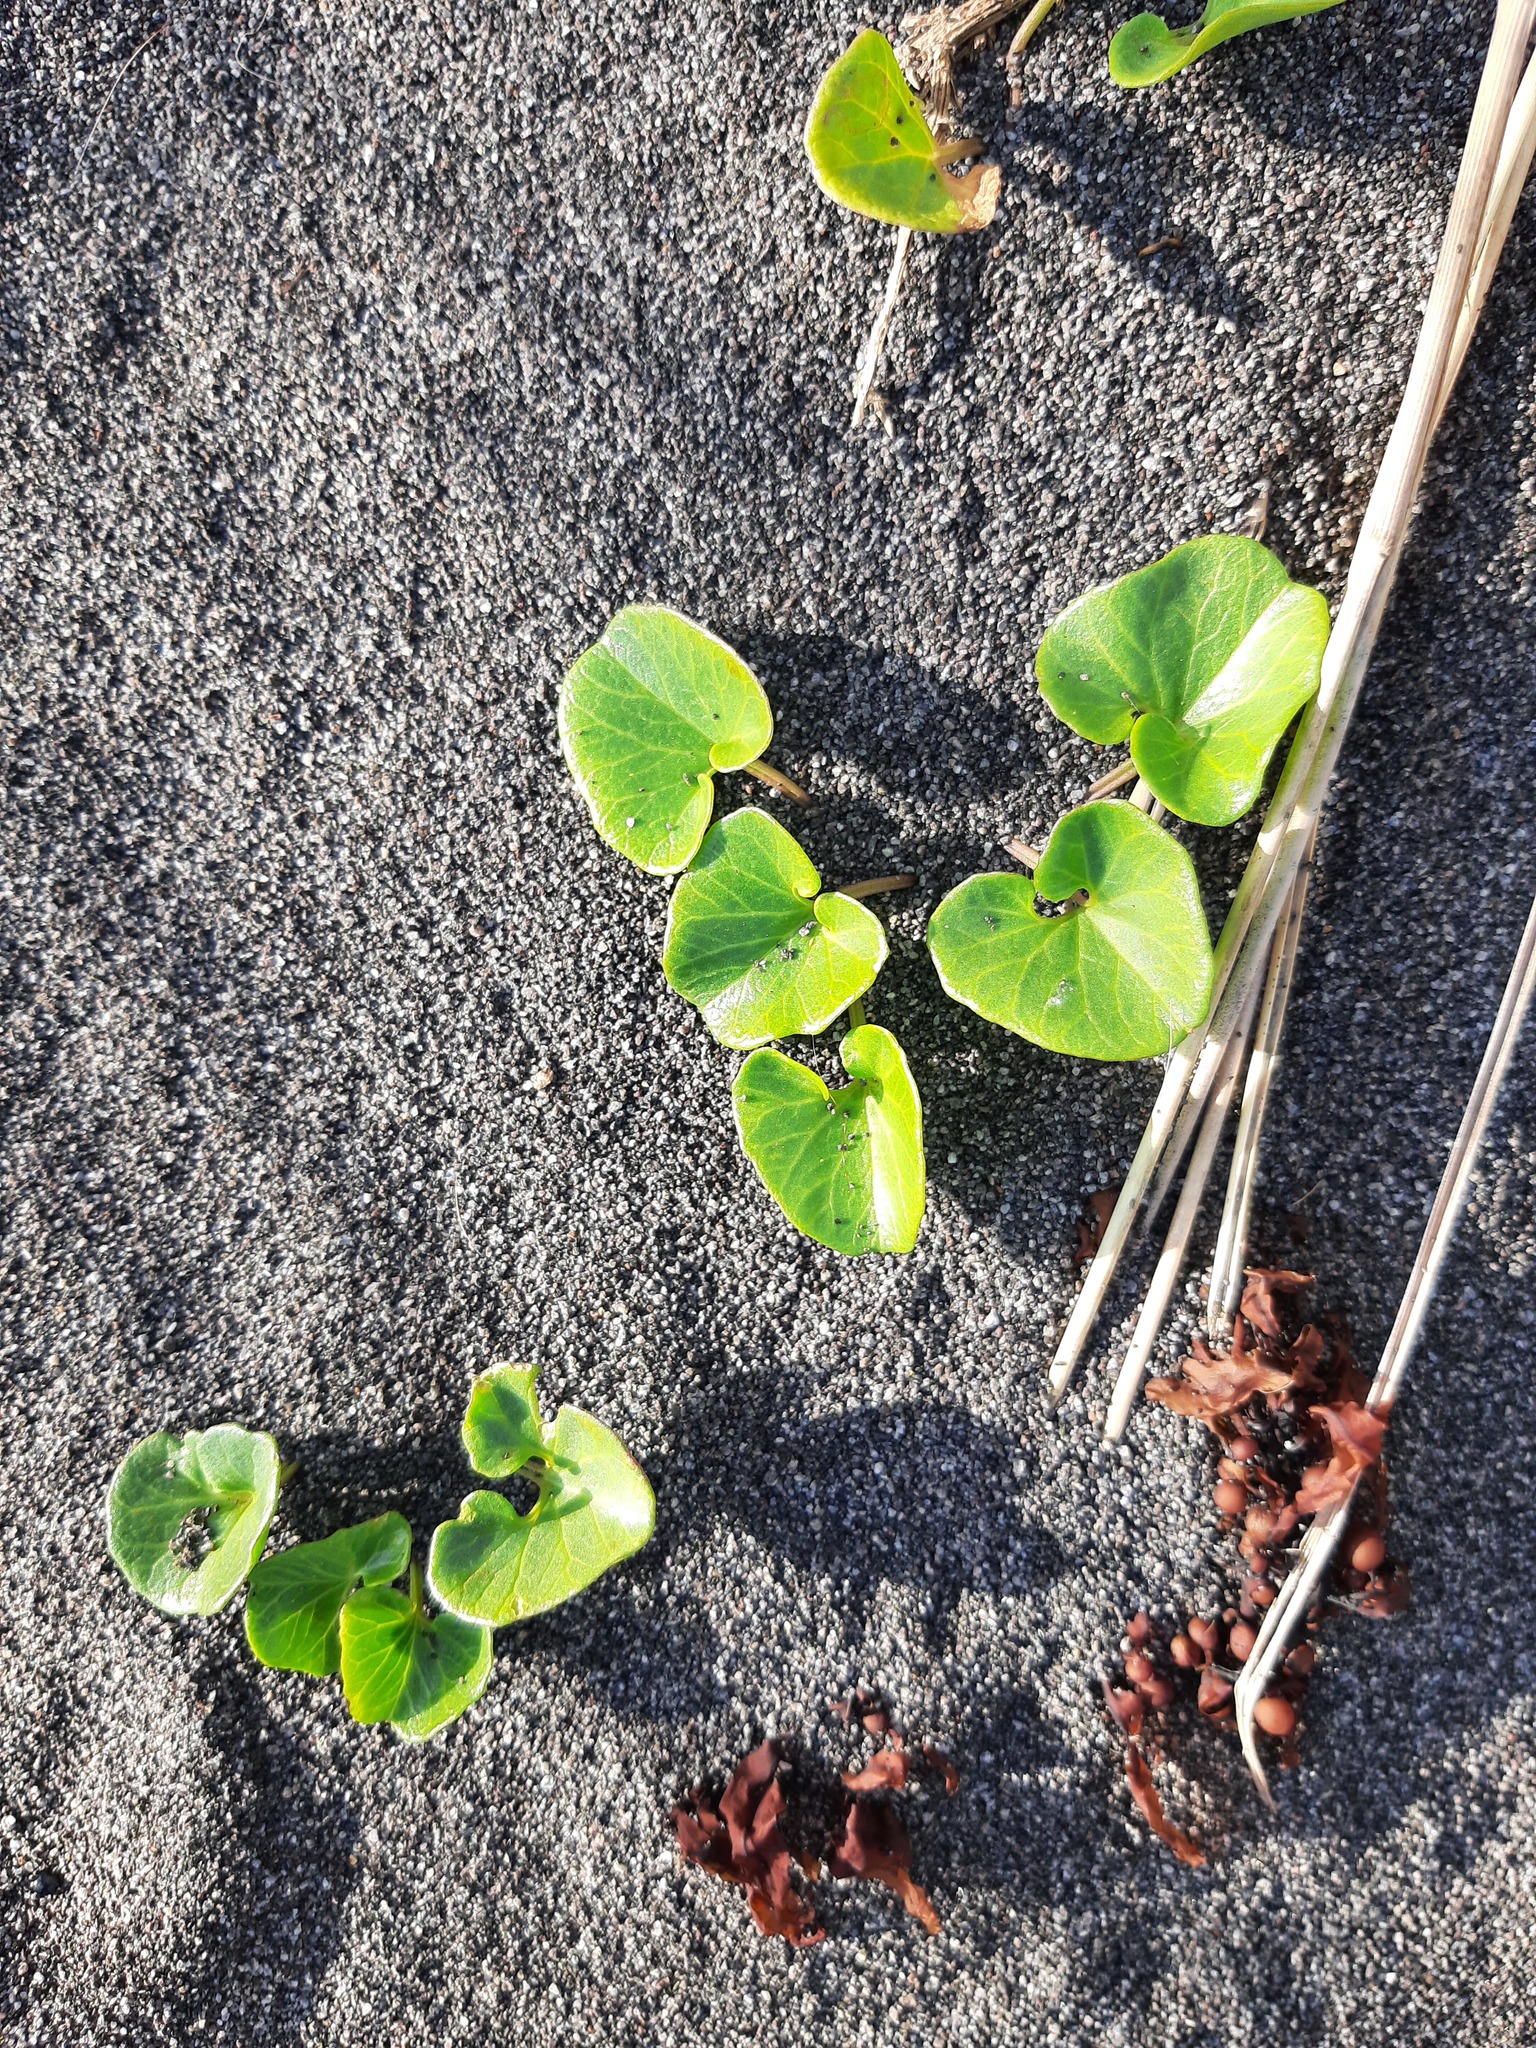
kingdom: Plantae
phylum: Tracheophyta
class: Magnoliopsida
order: Solanales
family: Convolvulaceae
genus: Calystegia
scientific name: Calystegia soldanella
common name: Sea bindweed
